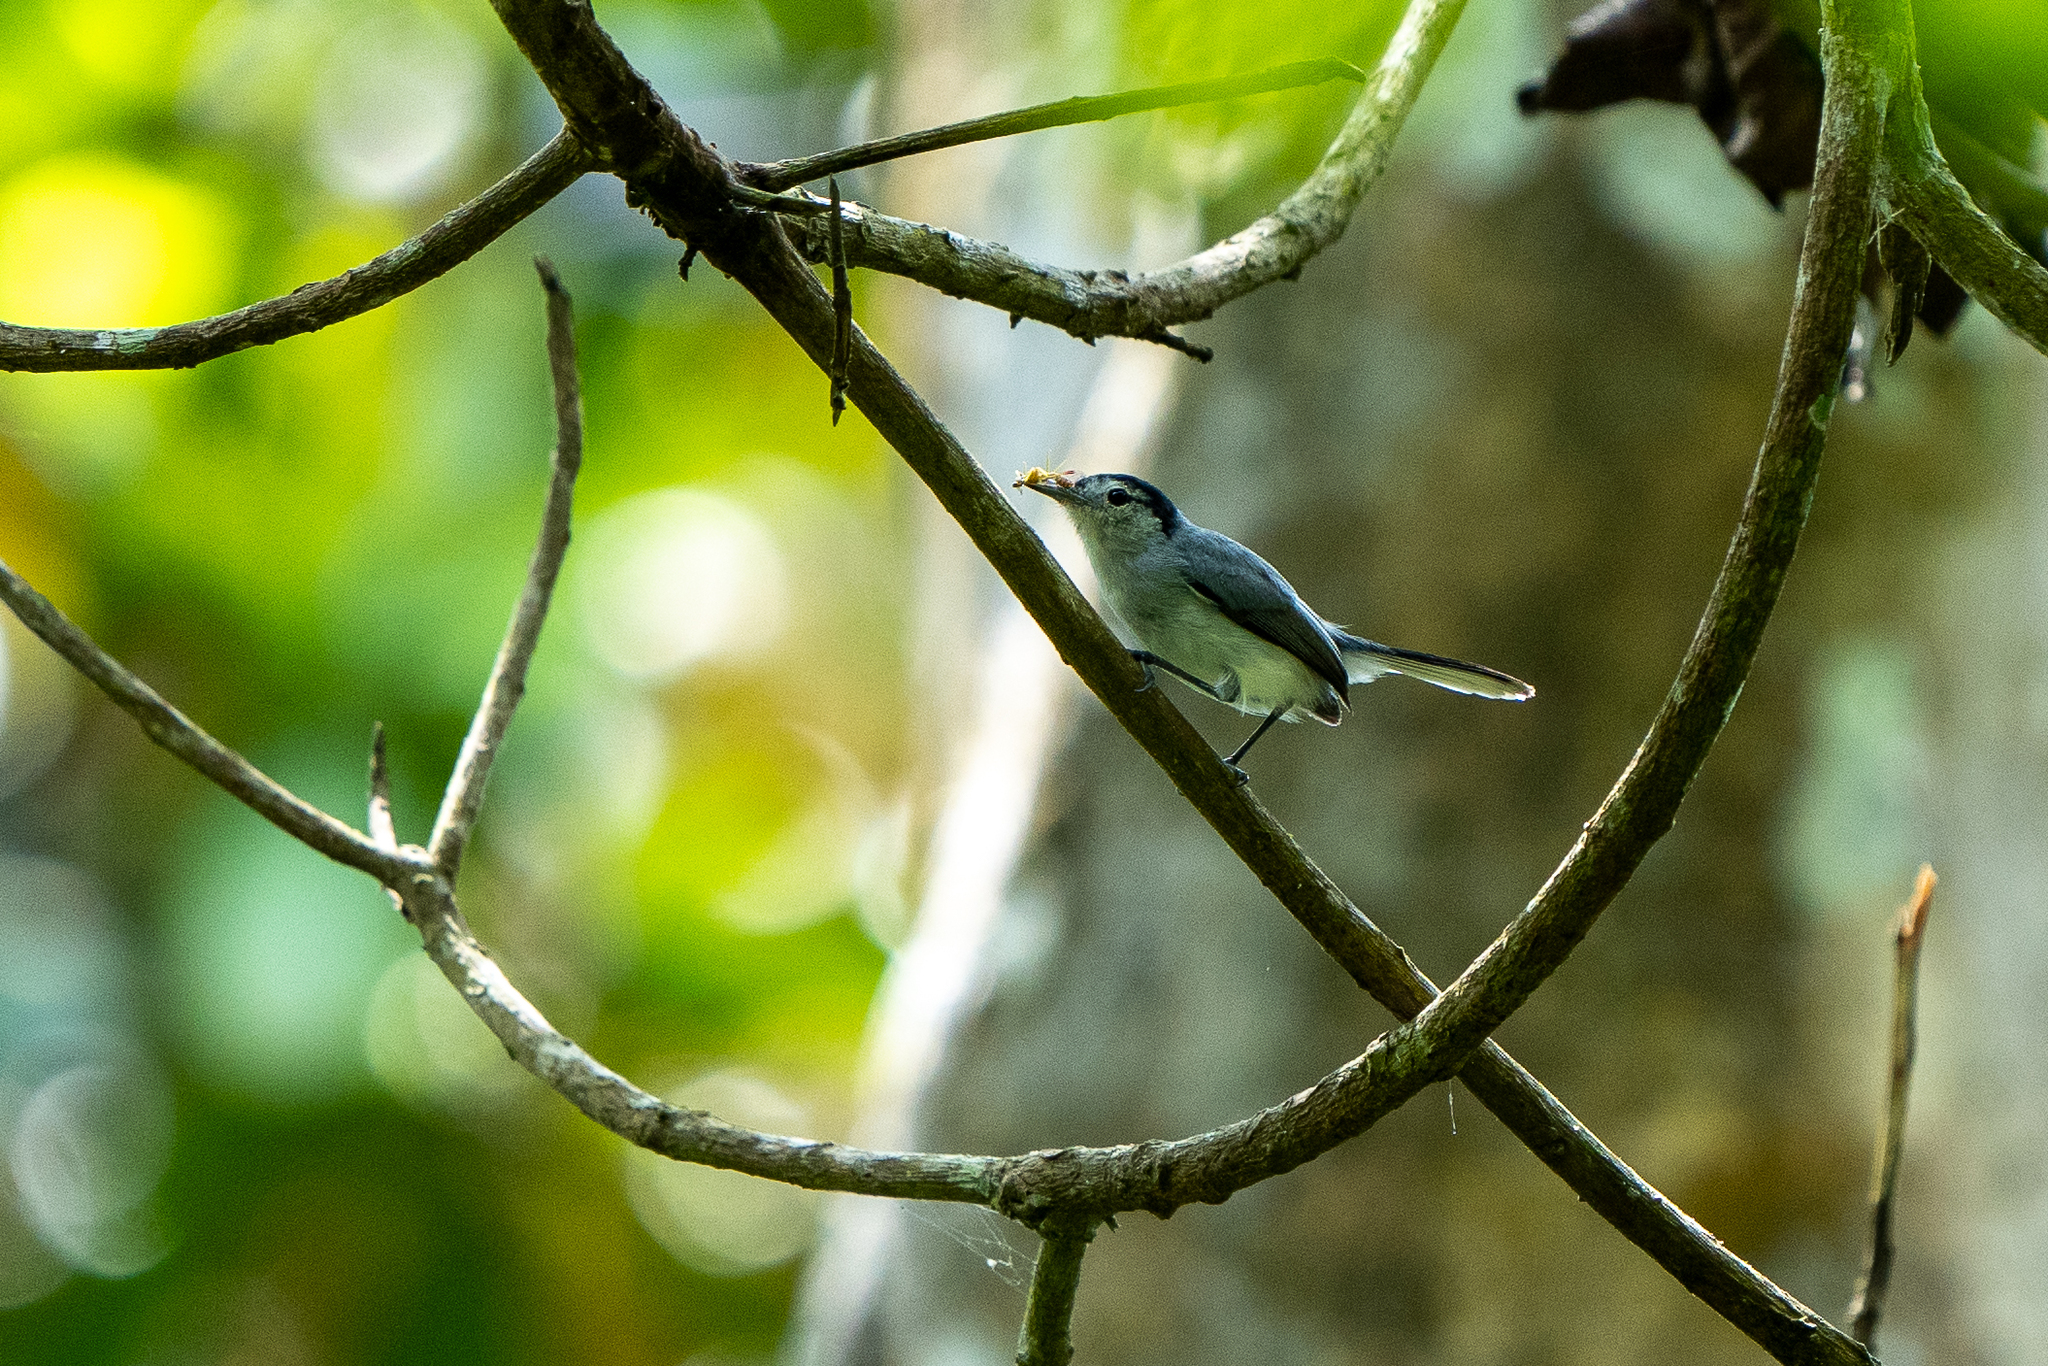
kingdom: Animalia
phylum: Chordata
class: Aves
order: Passeriformes
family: Polioptilidae
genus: Polioptila
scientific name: Polioptila plumbea
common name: Tropical gnatcatcher
